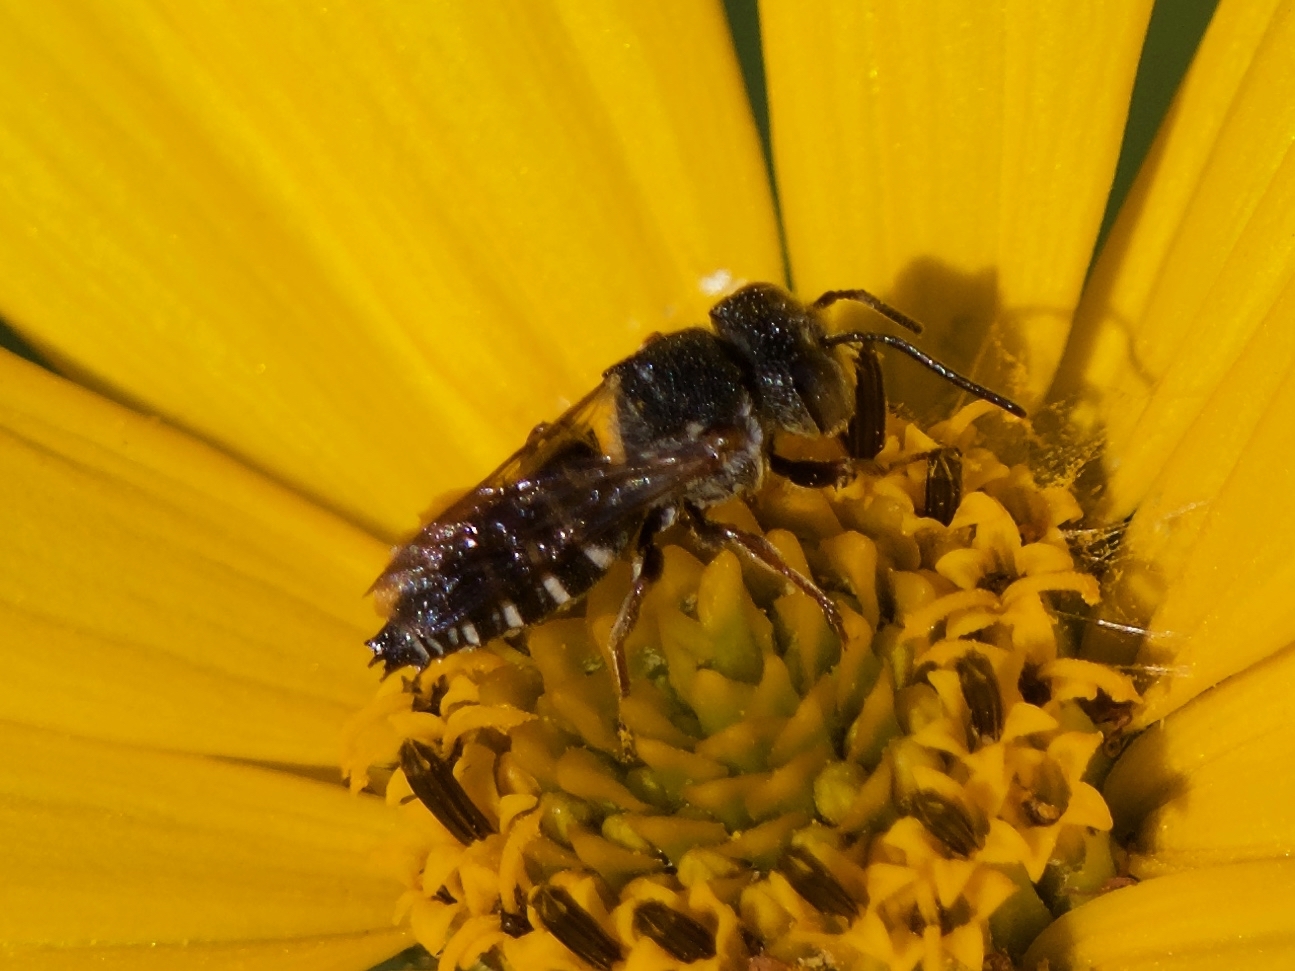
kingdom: Animalia
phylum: Arthropoda
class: Insecta
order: Hymenoptera
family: Megachilidae
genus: Coelioxys
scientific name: Coelioxys
